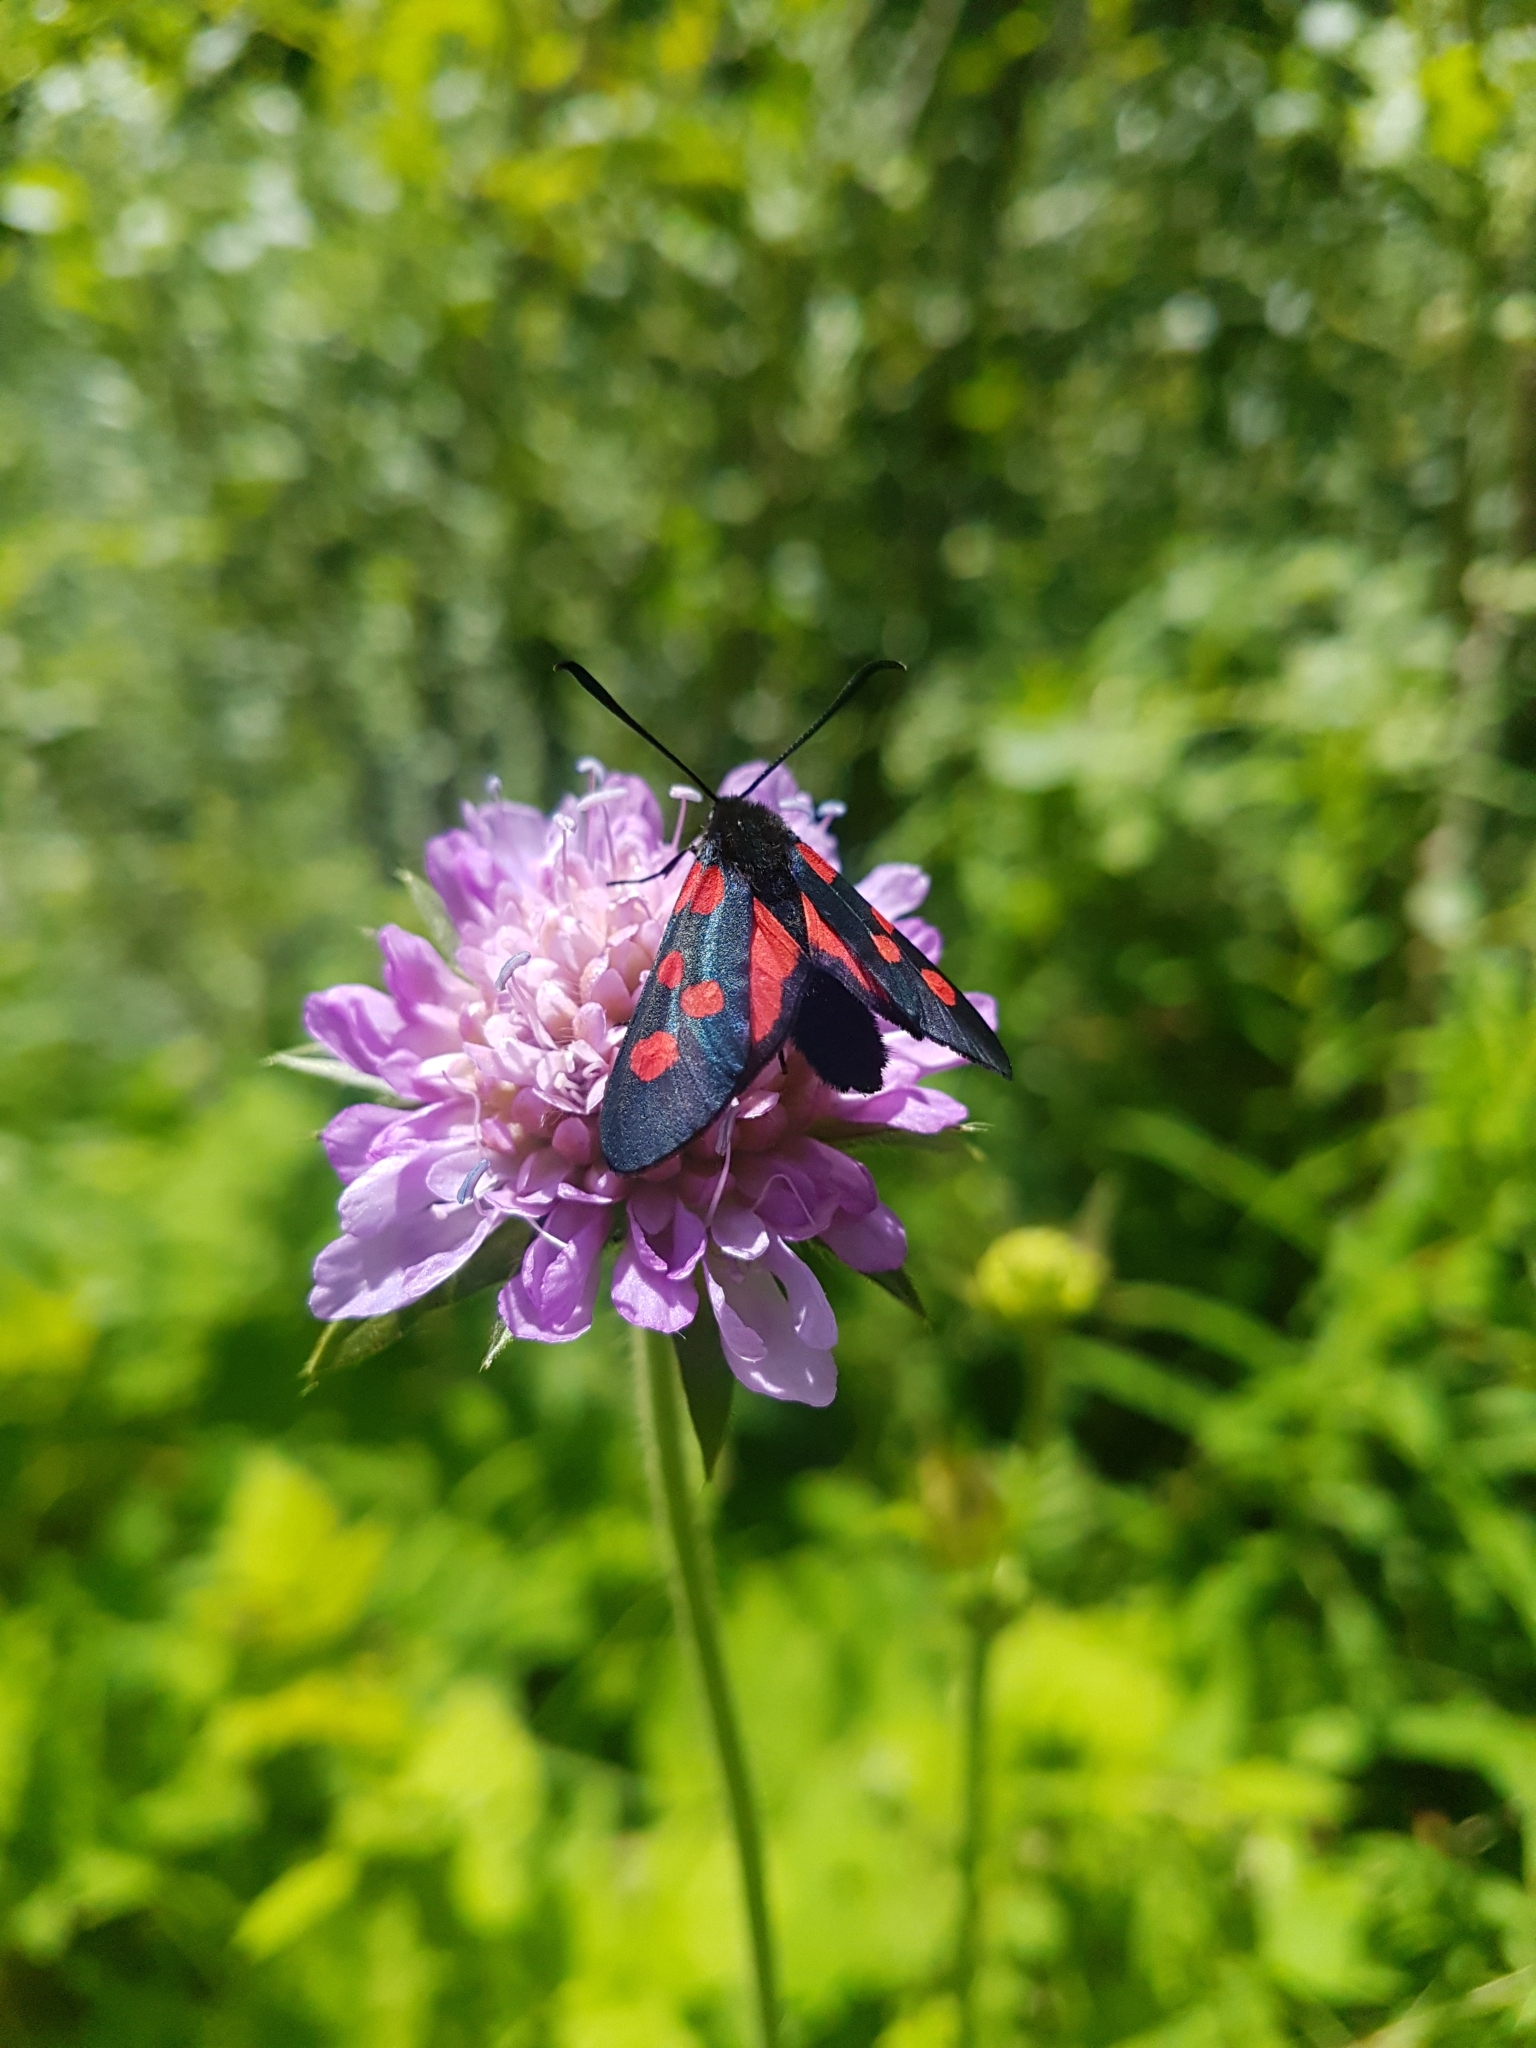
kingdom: Animalia
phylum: Arthropoda
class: Insecta
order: Lepidoptera
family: Zygaenidae
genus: Zygaena
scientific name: Zygaena lonicerae
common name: Narrow-bordered five-spot burnet
